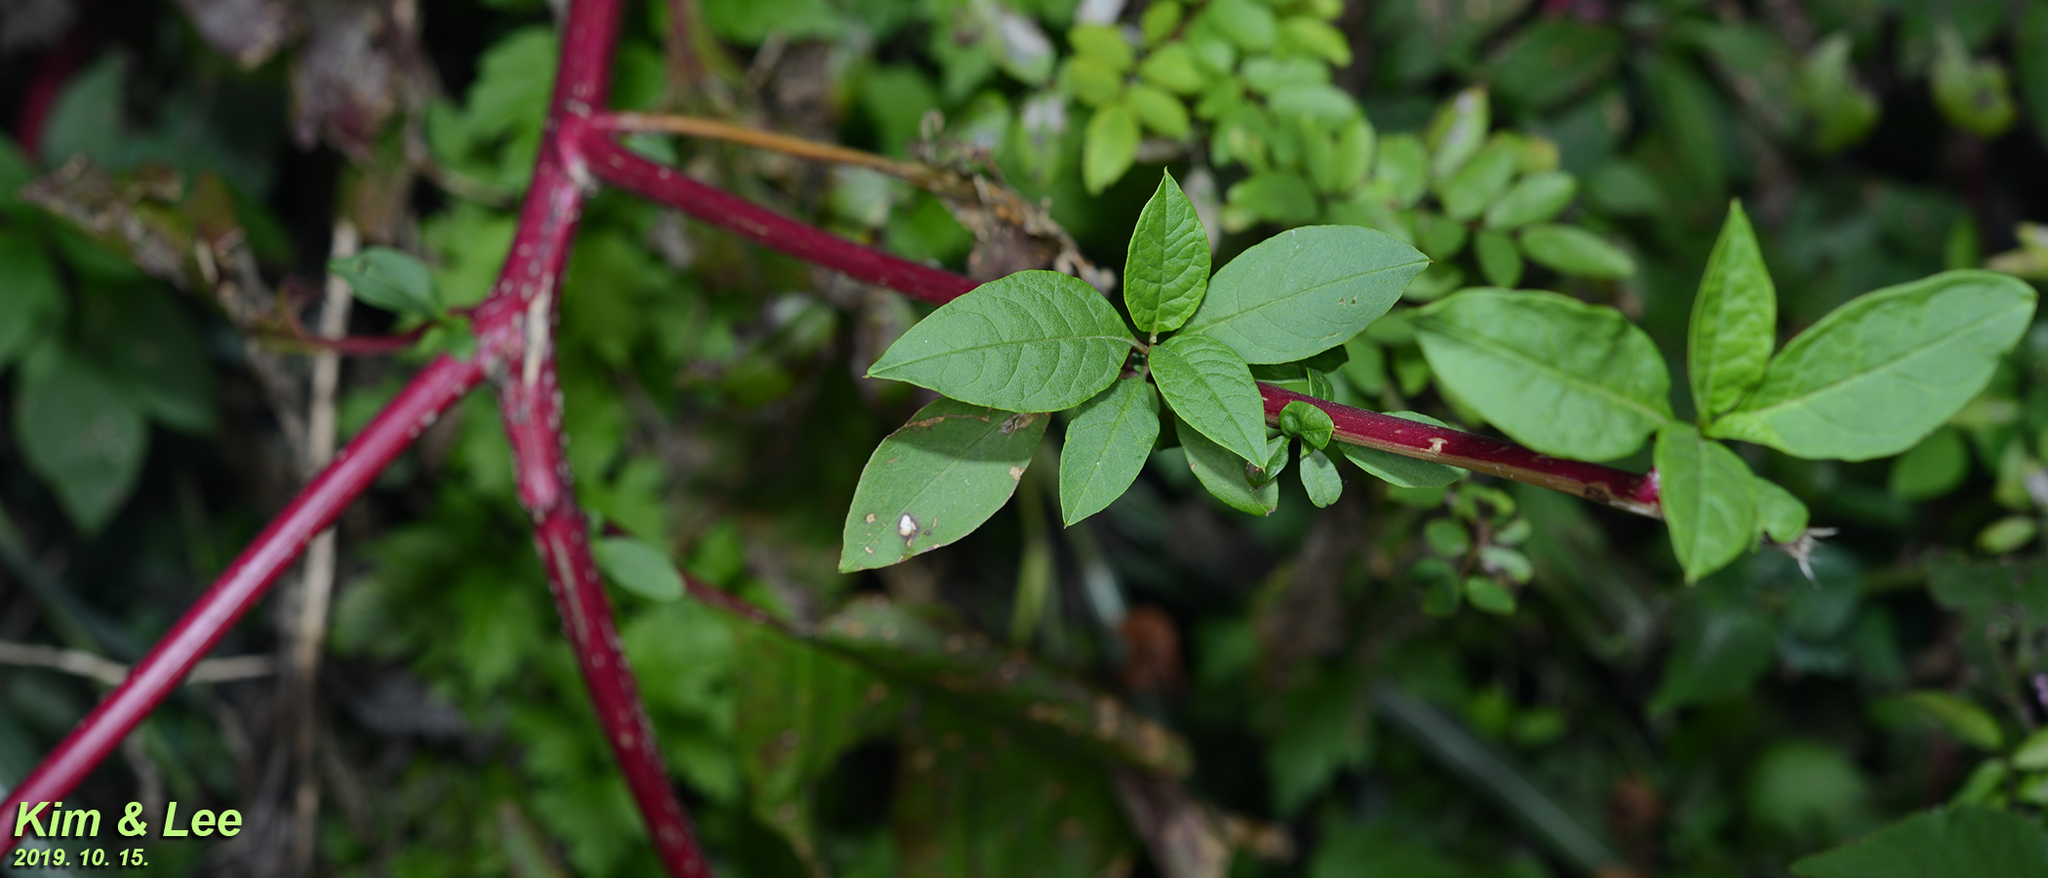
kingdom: Plantae
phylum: Tracheophyta
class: Magnoliopsida
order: Caryophyllales
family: Phytolaccaceae
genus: Phytolacca
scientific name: Phytolacca americana
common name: American pokeweed
